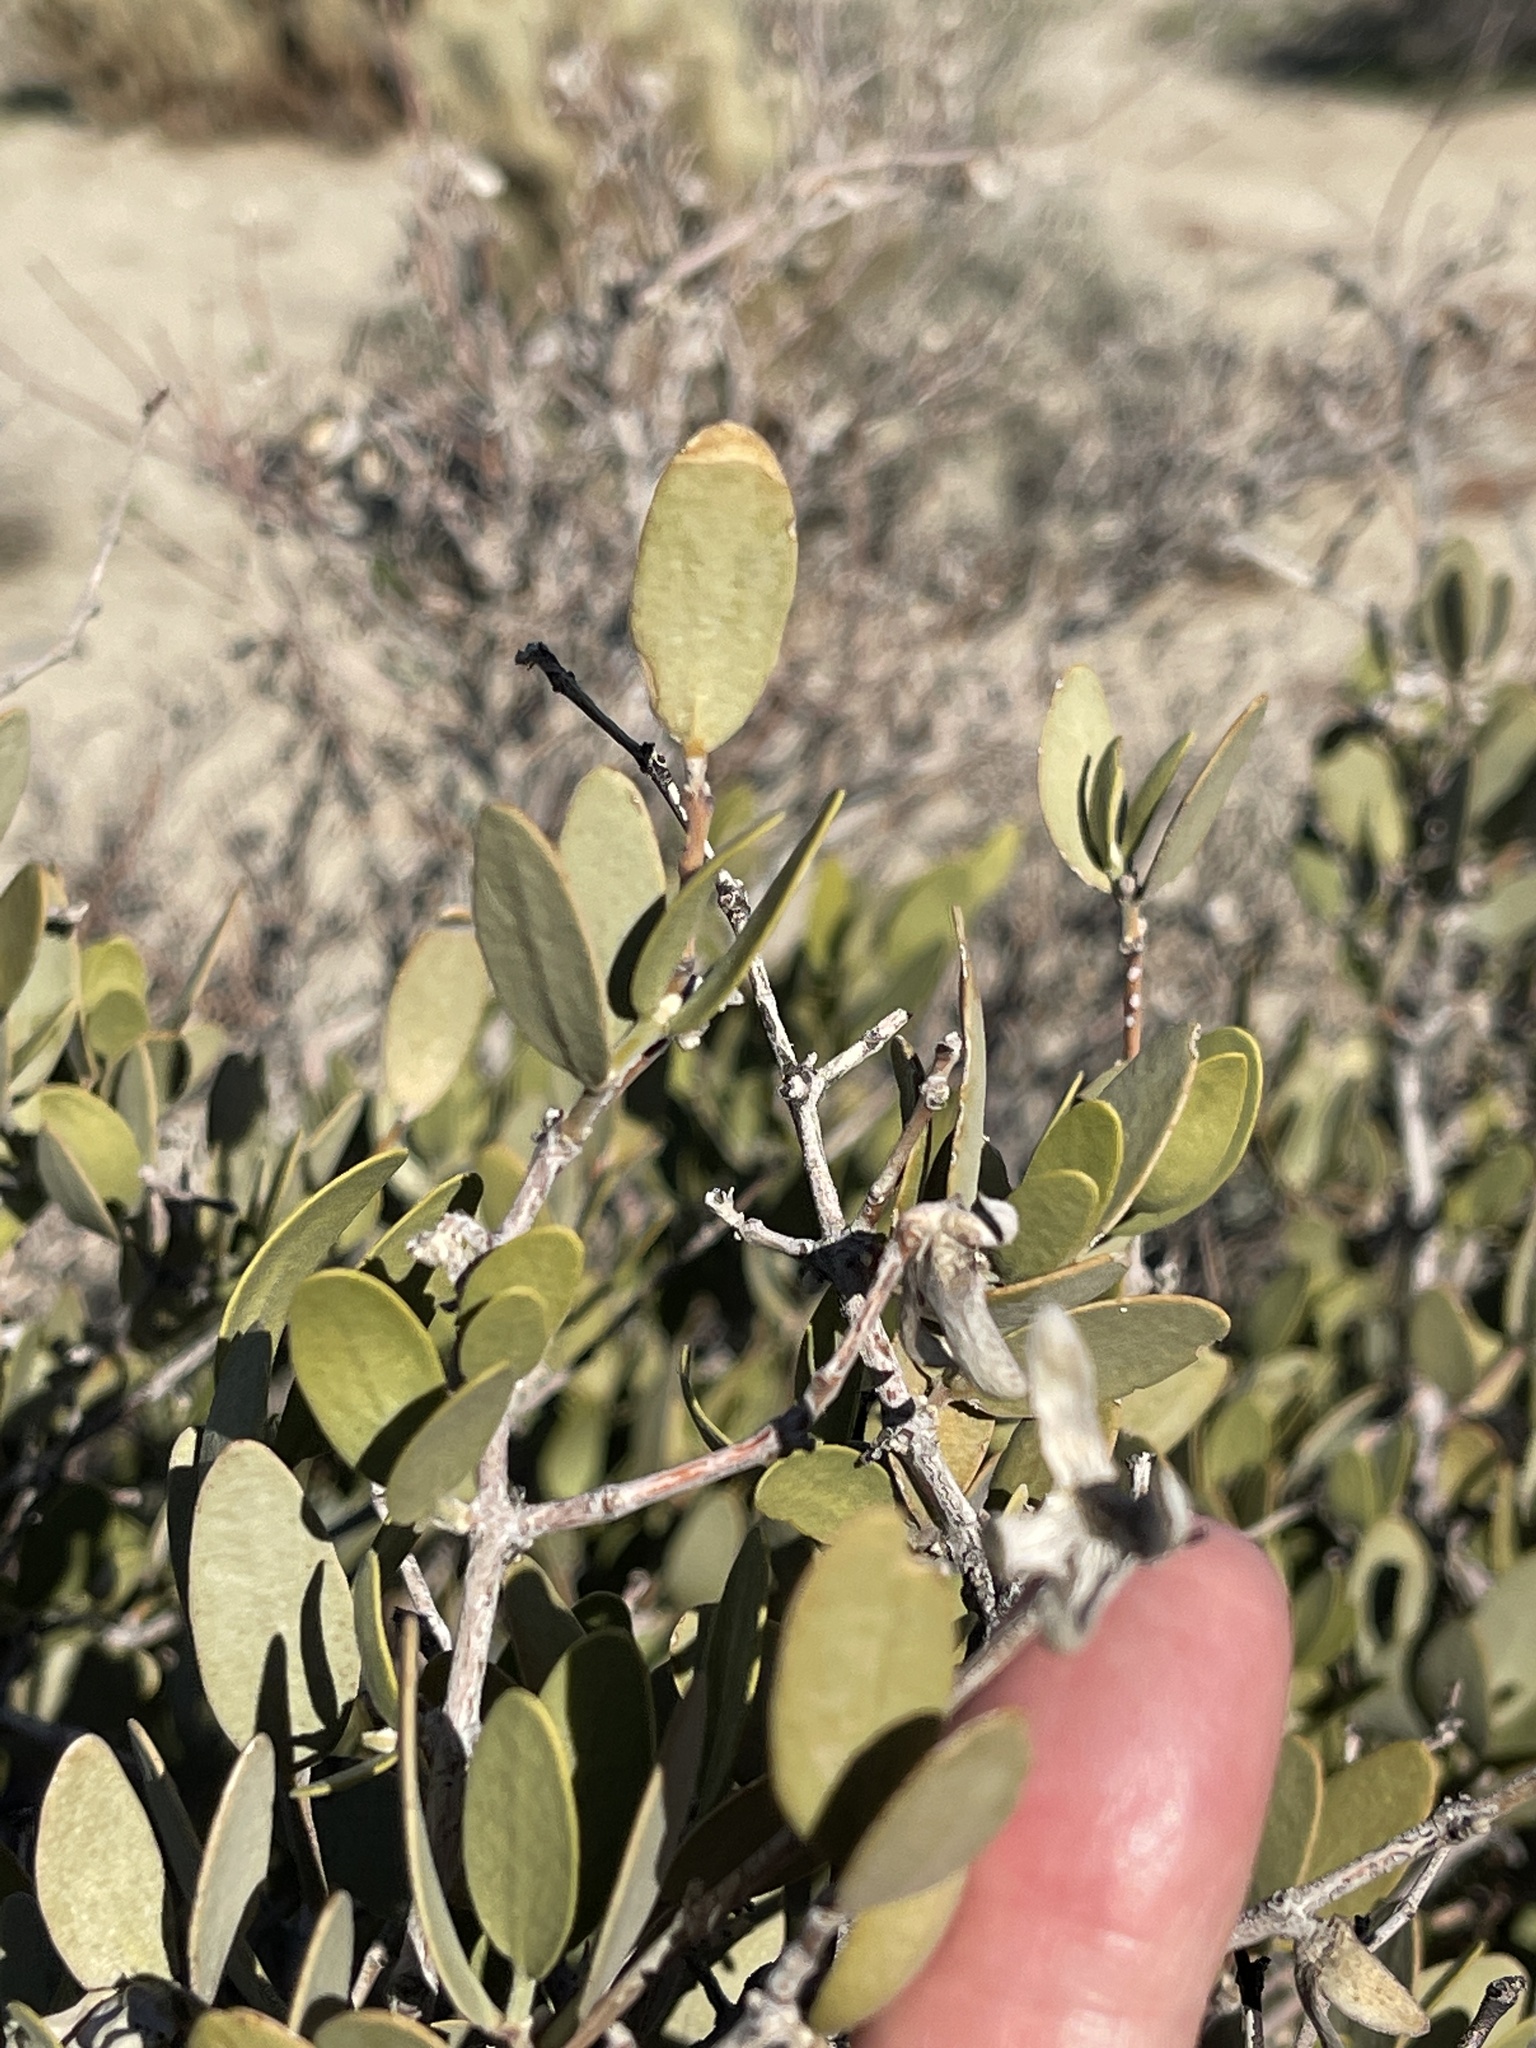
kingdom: Plantae
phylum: Tracheophyta
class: Magnoliopsida
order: Caryophyllales
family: Simmondsiaceae
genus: Simmondsia
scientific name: Simmondsia chinensis
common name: Jojoba
